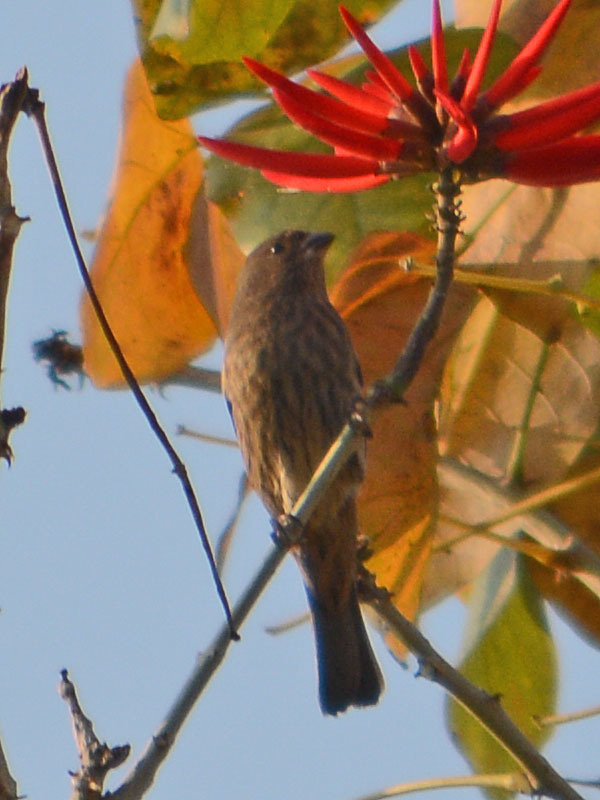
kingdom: Animalia
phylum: Chordata
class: Aves
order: Passeriformes
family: Fringillidae
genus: Haemorhous
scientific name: Haemorhous mexicanus
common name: House finch
